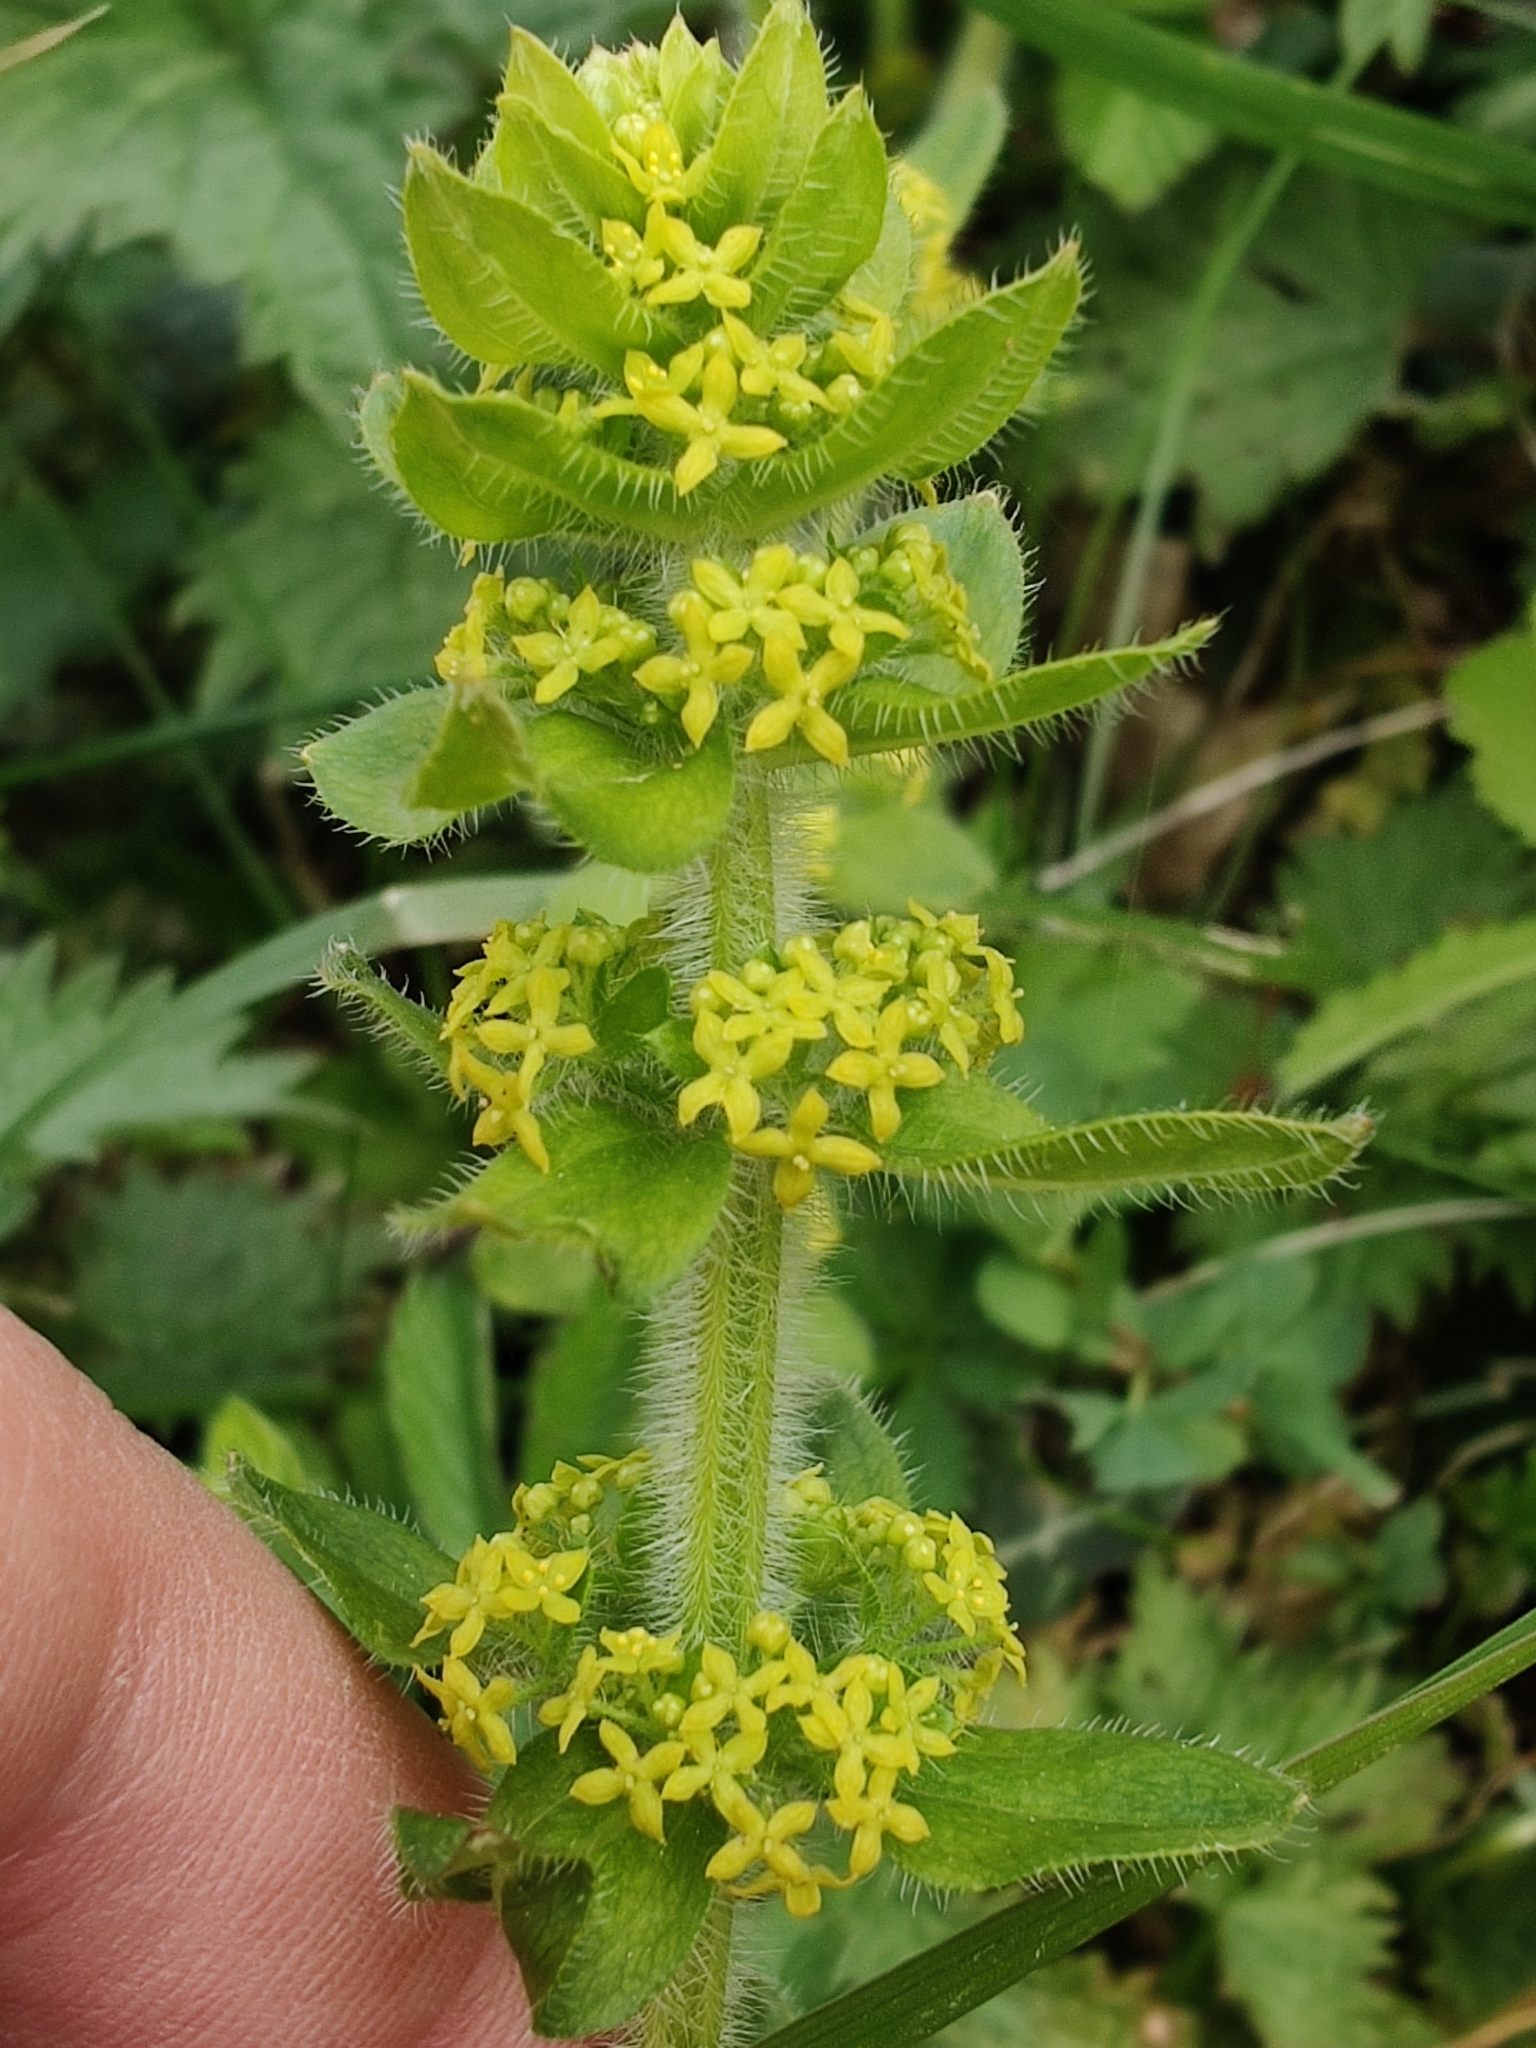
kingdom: Plantae
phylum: Tracheophyta
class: Magnoliopsida
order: Gentianales
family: Rubiaceae
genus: Cruciata
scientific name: Cruciata laevipes
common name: Crosswort
